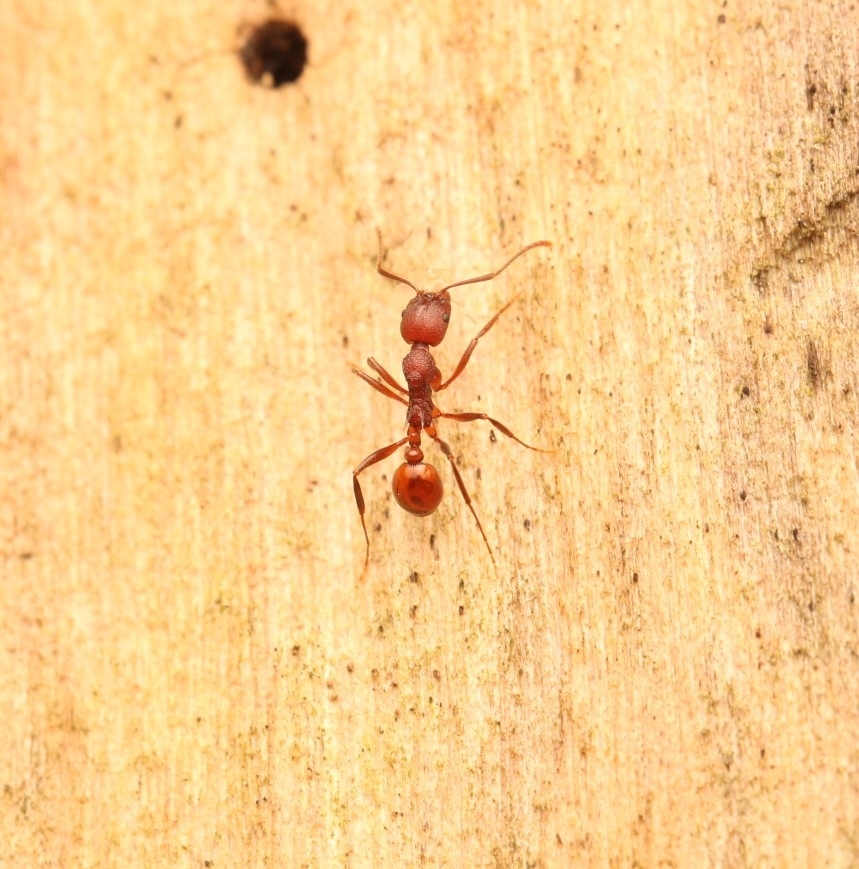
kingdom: Animalia
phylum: Arthropoda
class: Insecta
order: Hymenoptera
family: Formicidae
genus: Aphaenogaster
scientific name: Aphaenogaster tennesseensis
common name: Tennessee thread-waisted ant
